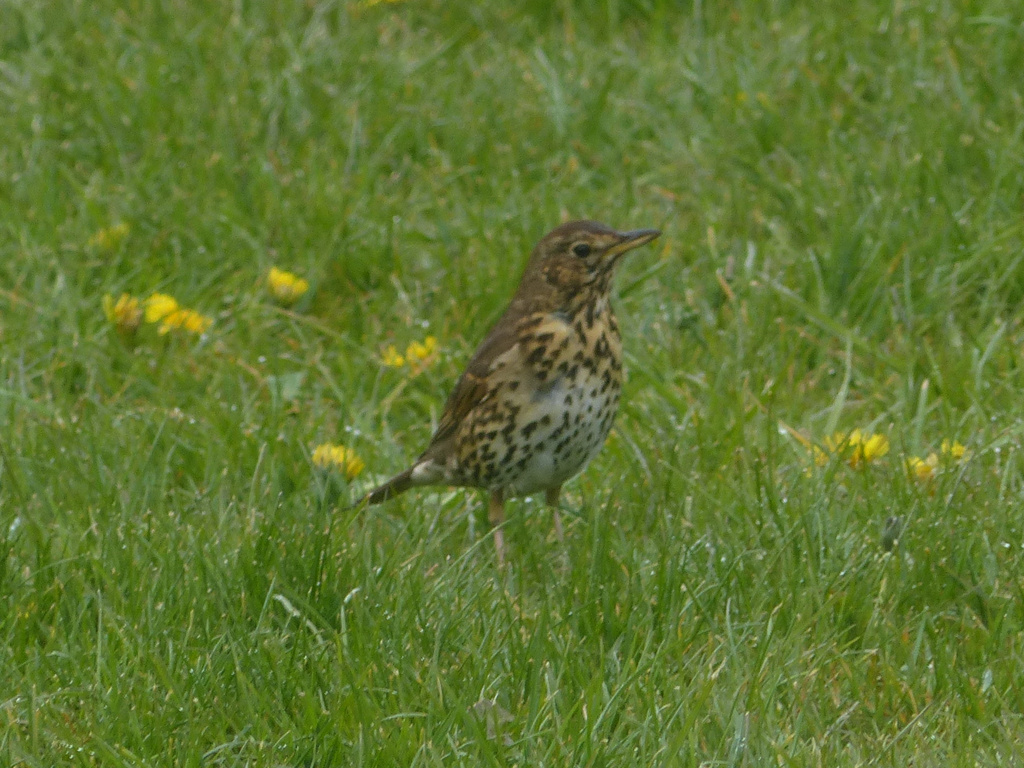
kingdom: Animalia
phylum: Chordata
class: Aves
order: Passeriformes
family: Turdidae
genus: Turdus
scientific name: Turdus philomelos
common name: Song thrush
